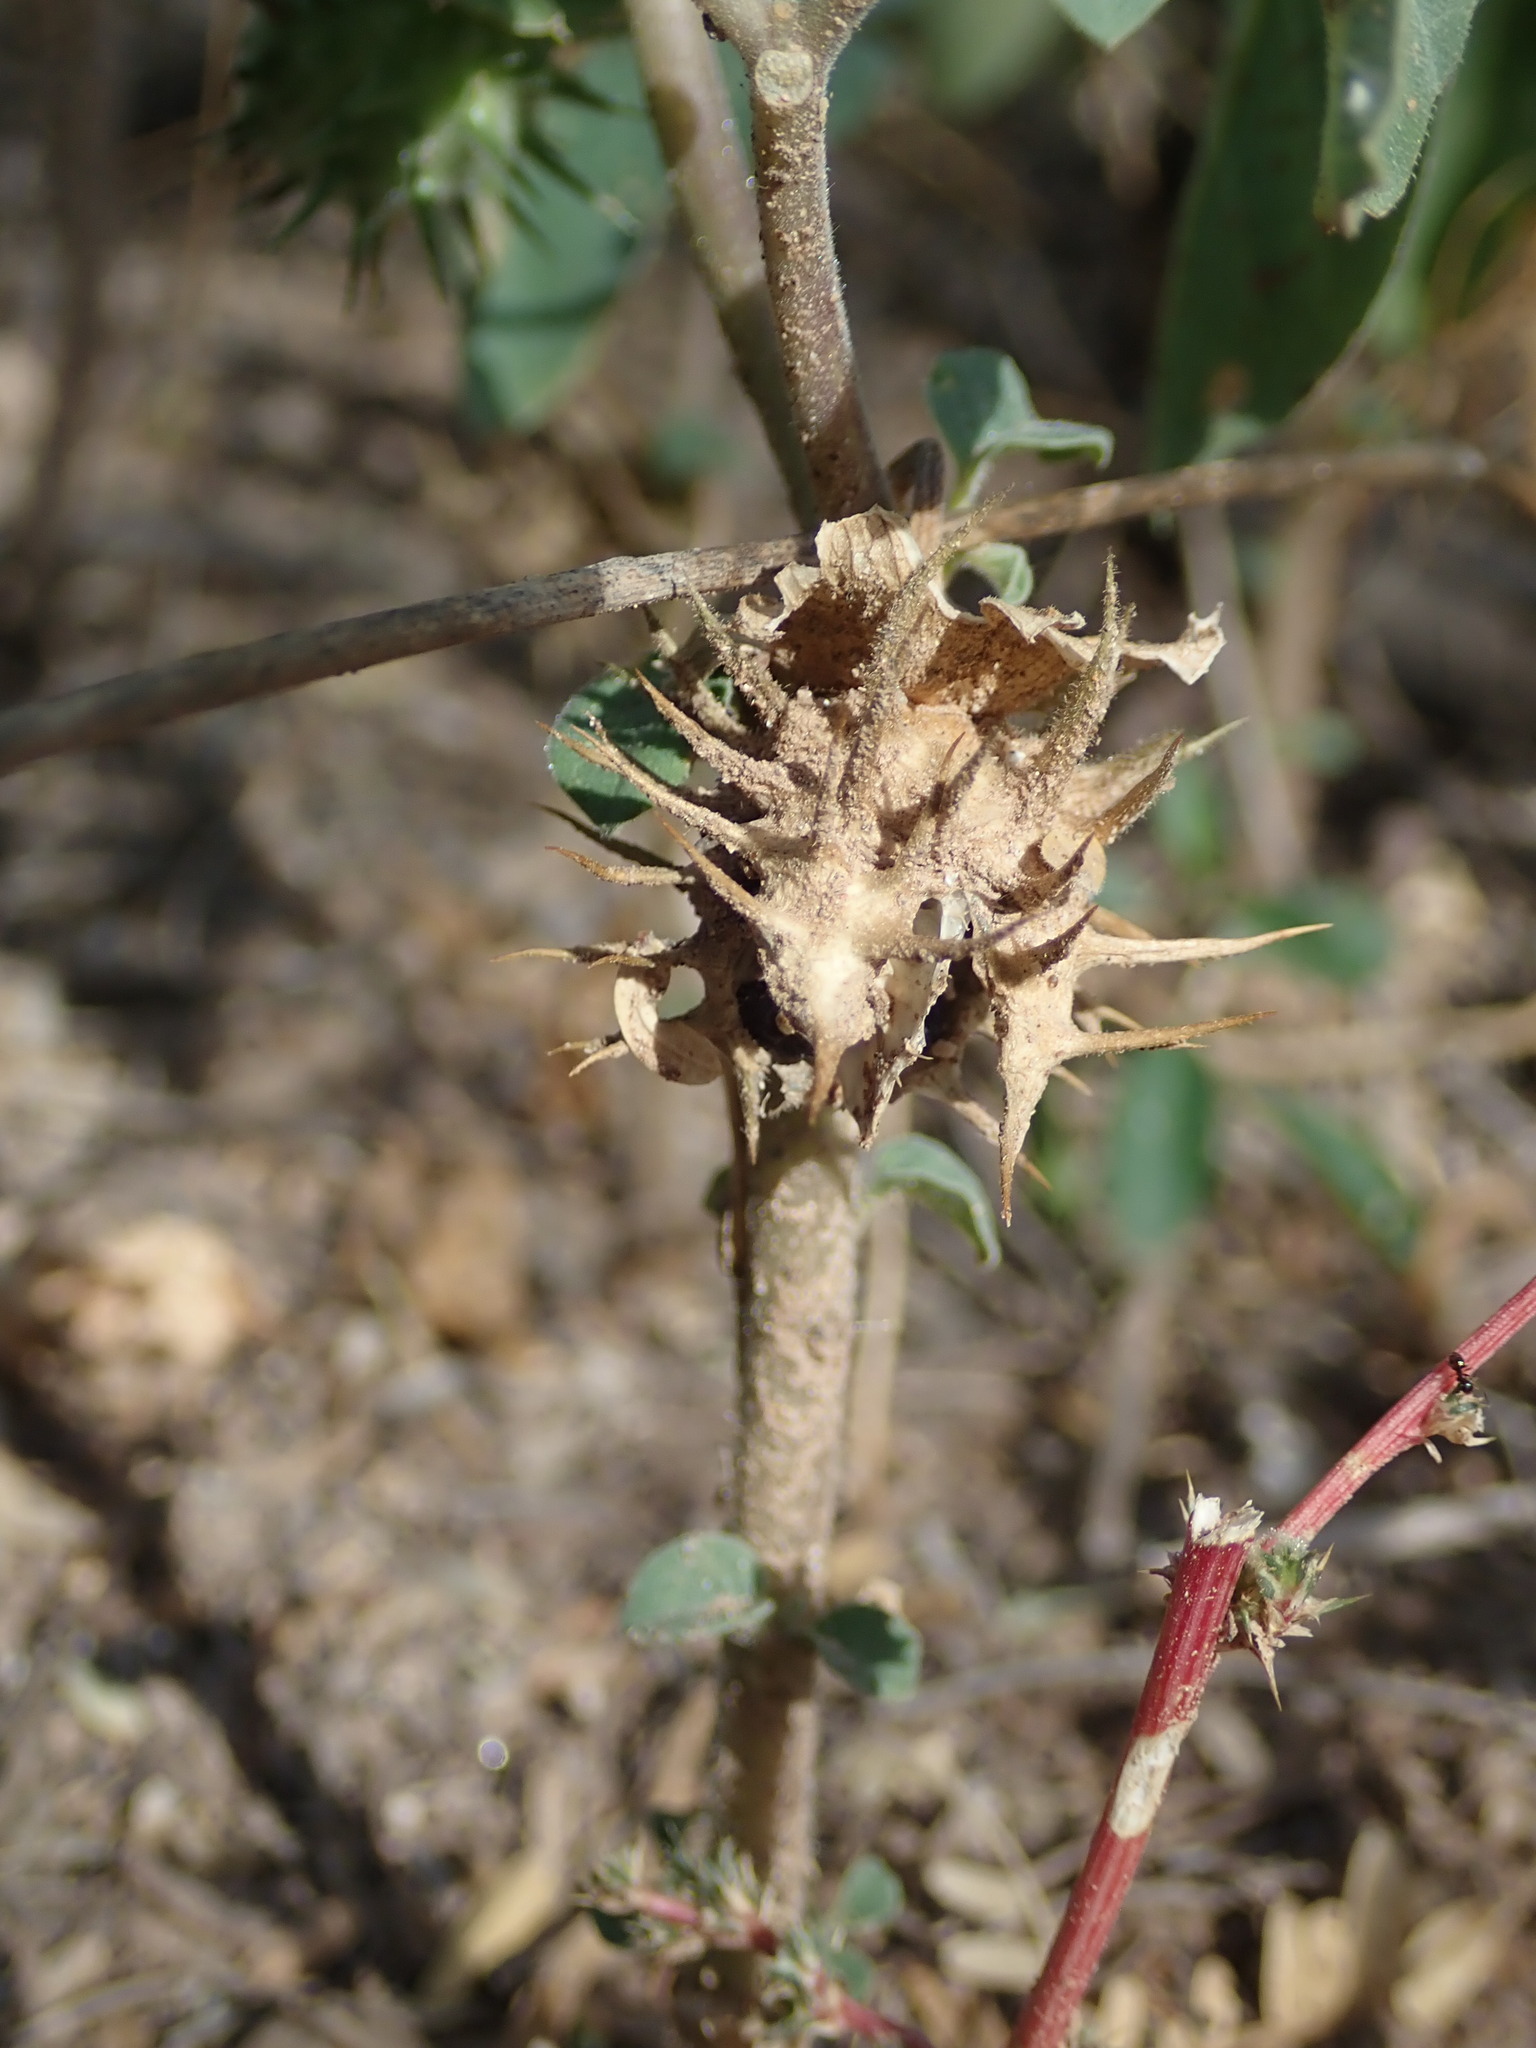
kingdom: Plantae
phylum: Tracheophyta
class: Magnoliopsida
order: Solanales
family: Solanaceae
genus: Datura
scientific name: Datura discolor
